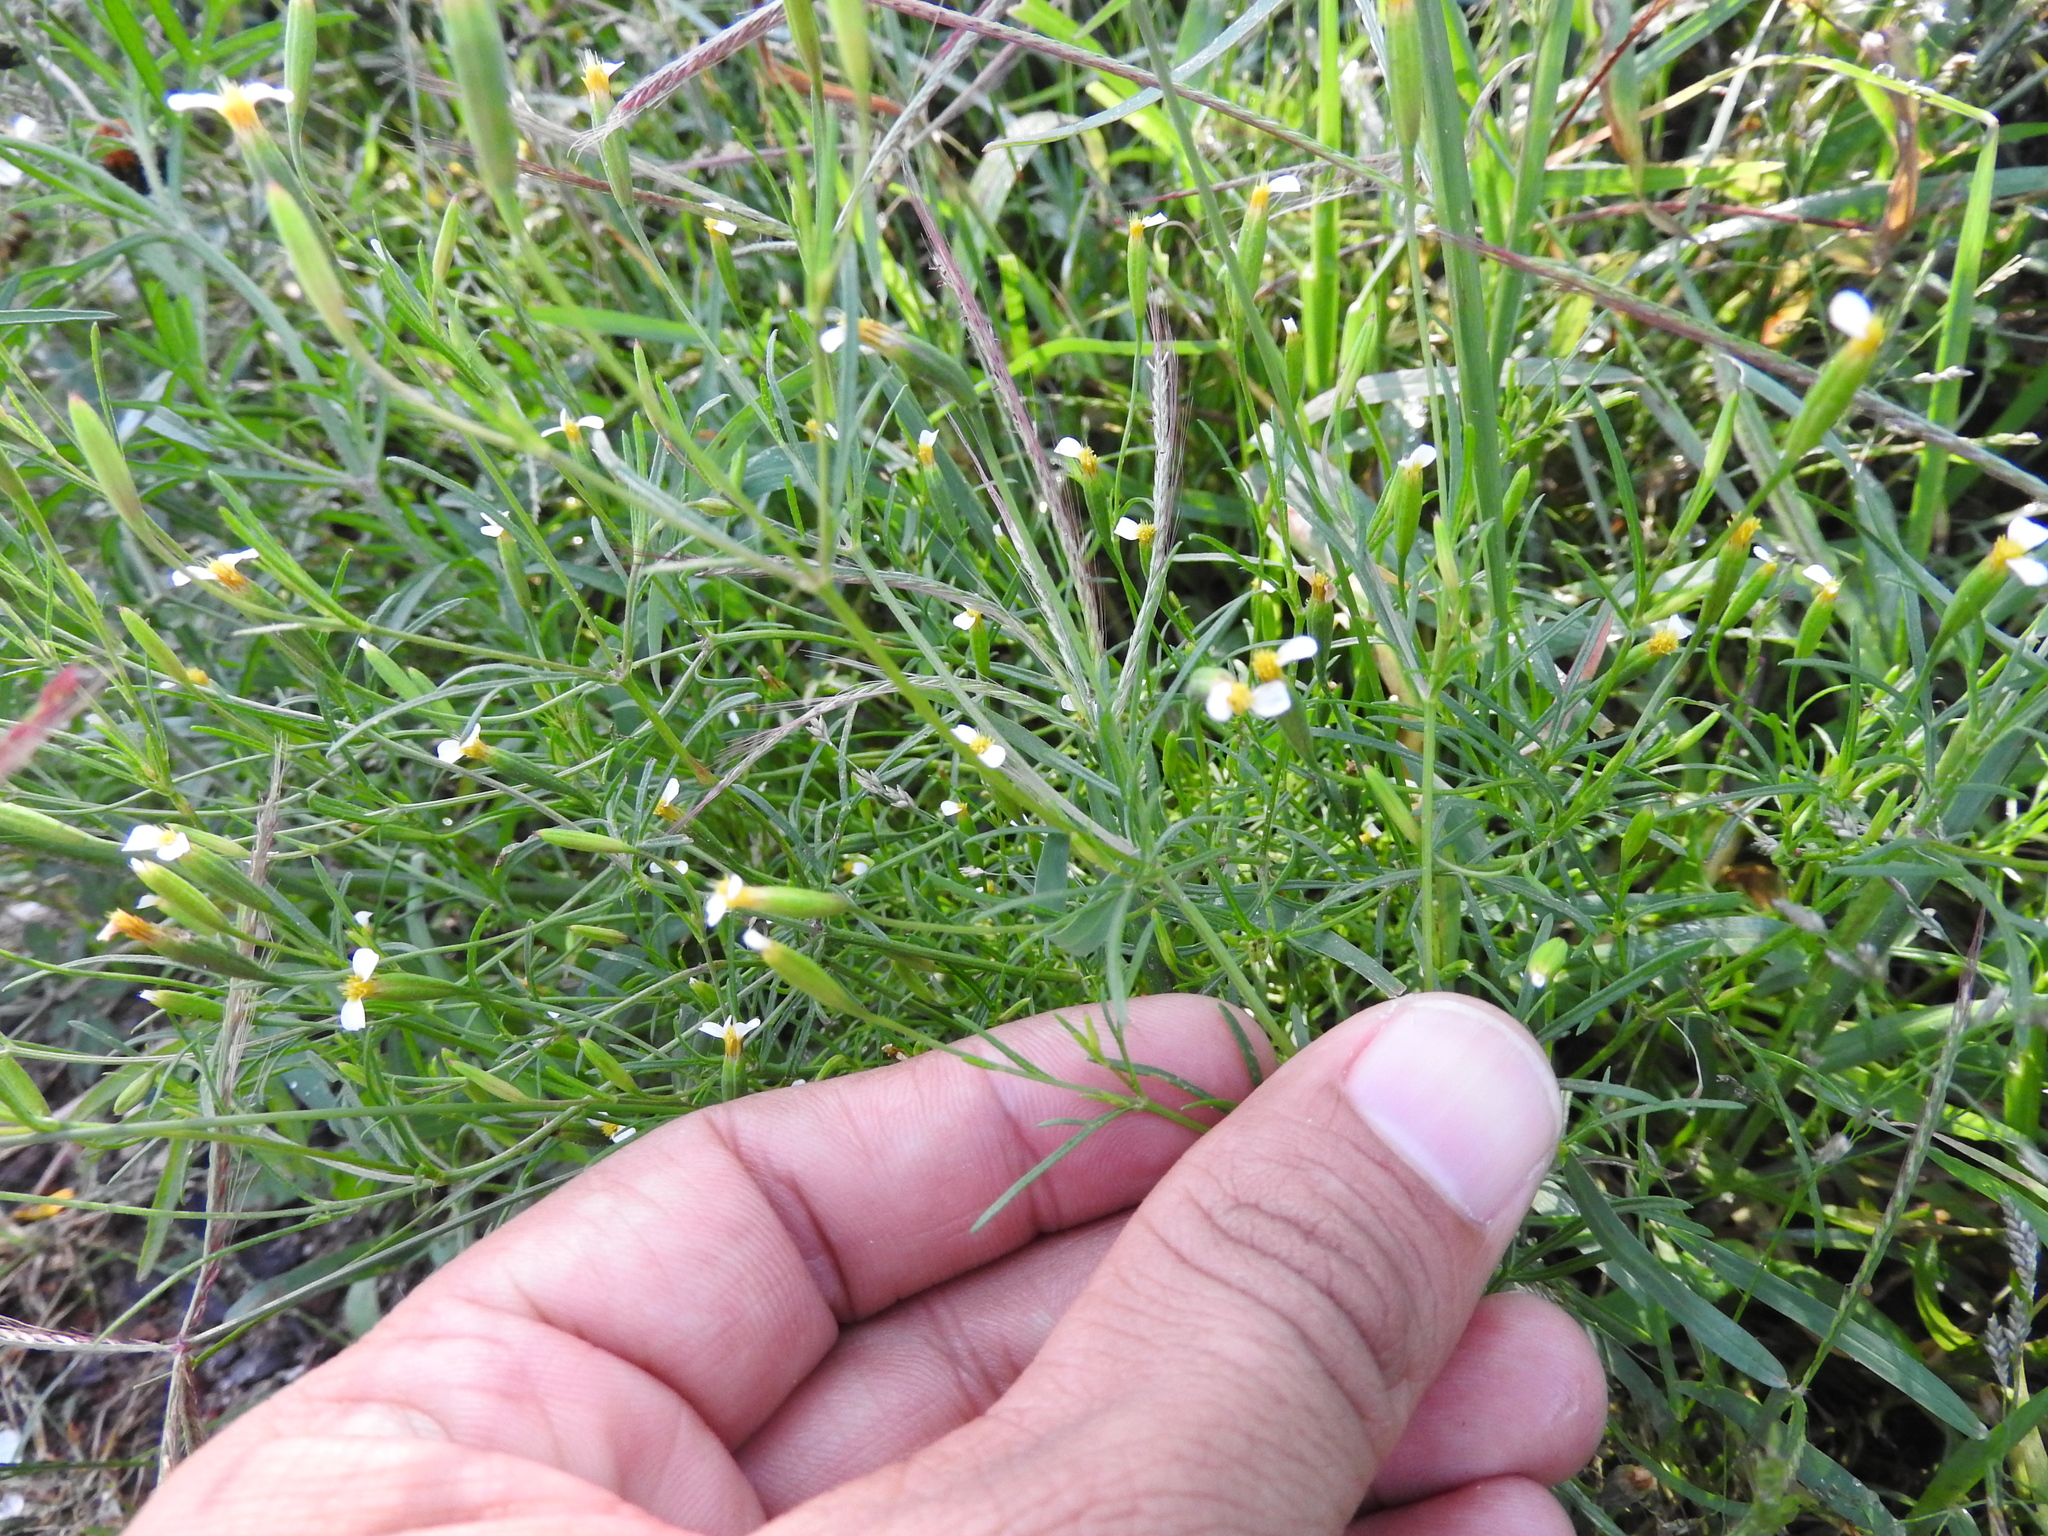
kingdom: Plantae
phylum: Tracheophyta
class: Magnoliopsida
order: Asterales
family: Asteraceae
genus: Tagetes
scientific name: Tagetes micrantha
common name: Licorice marigold
